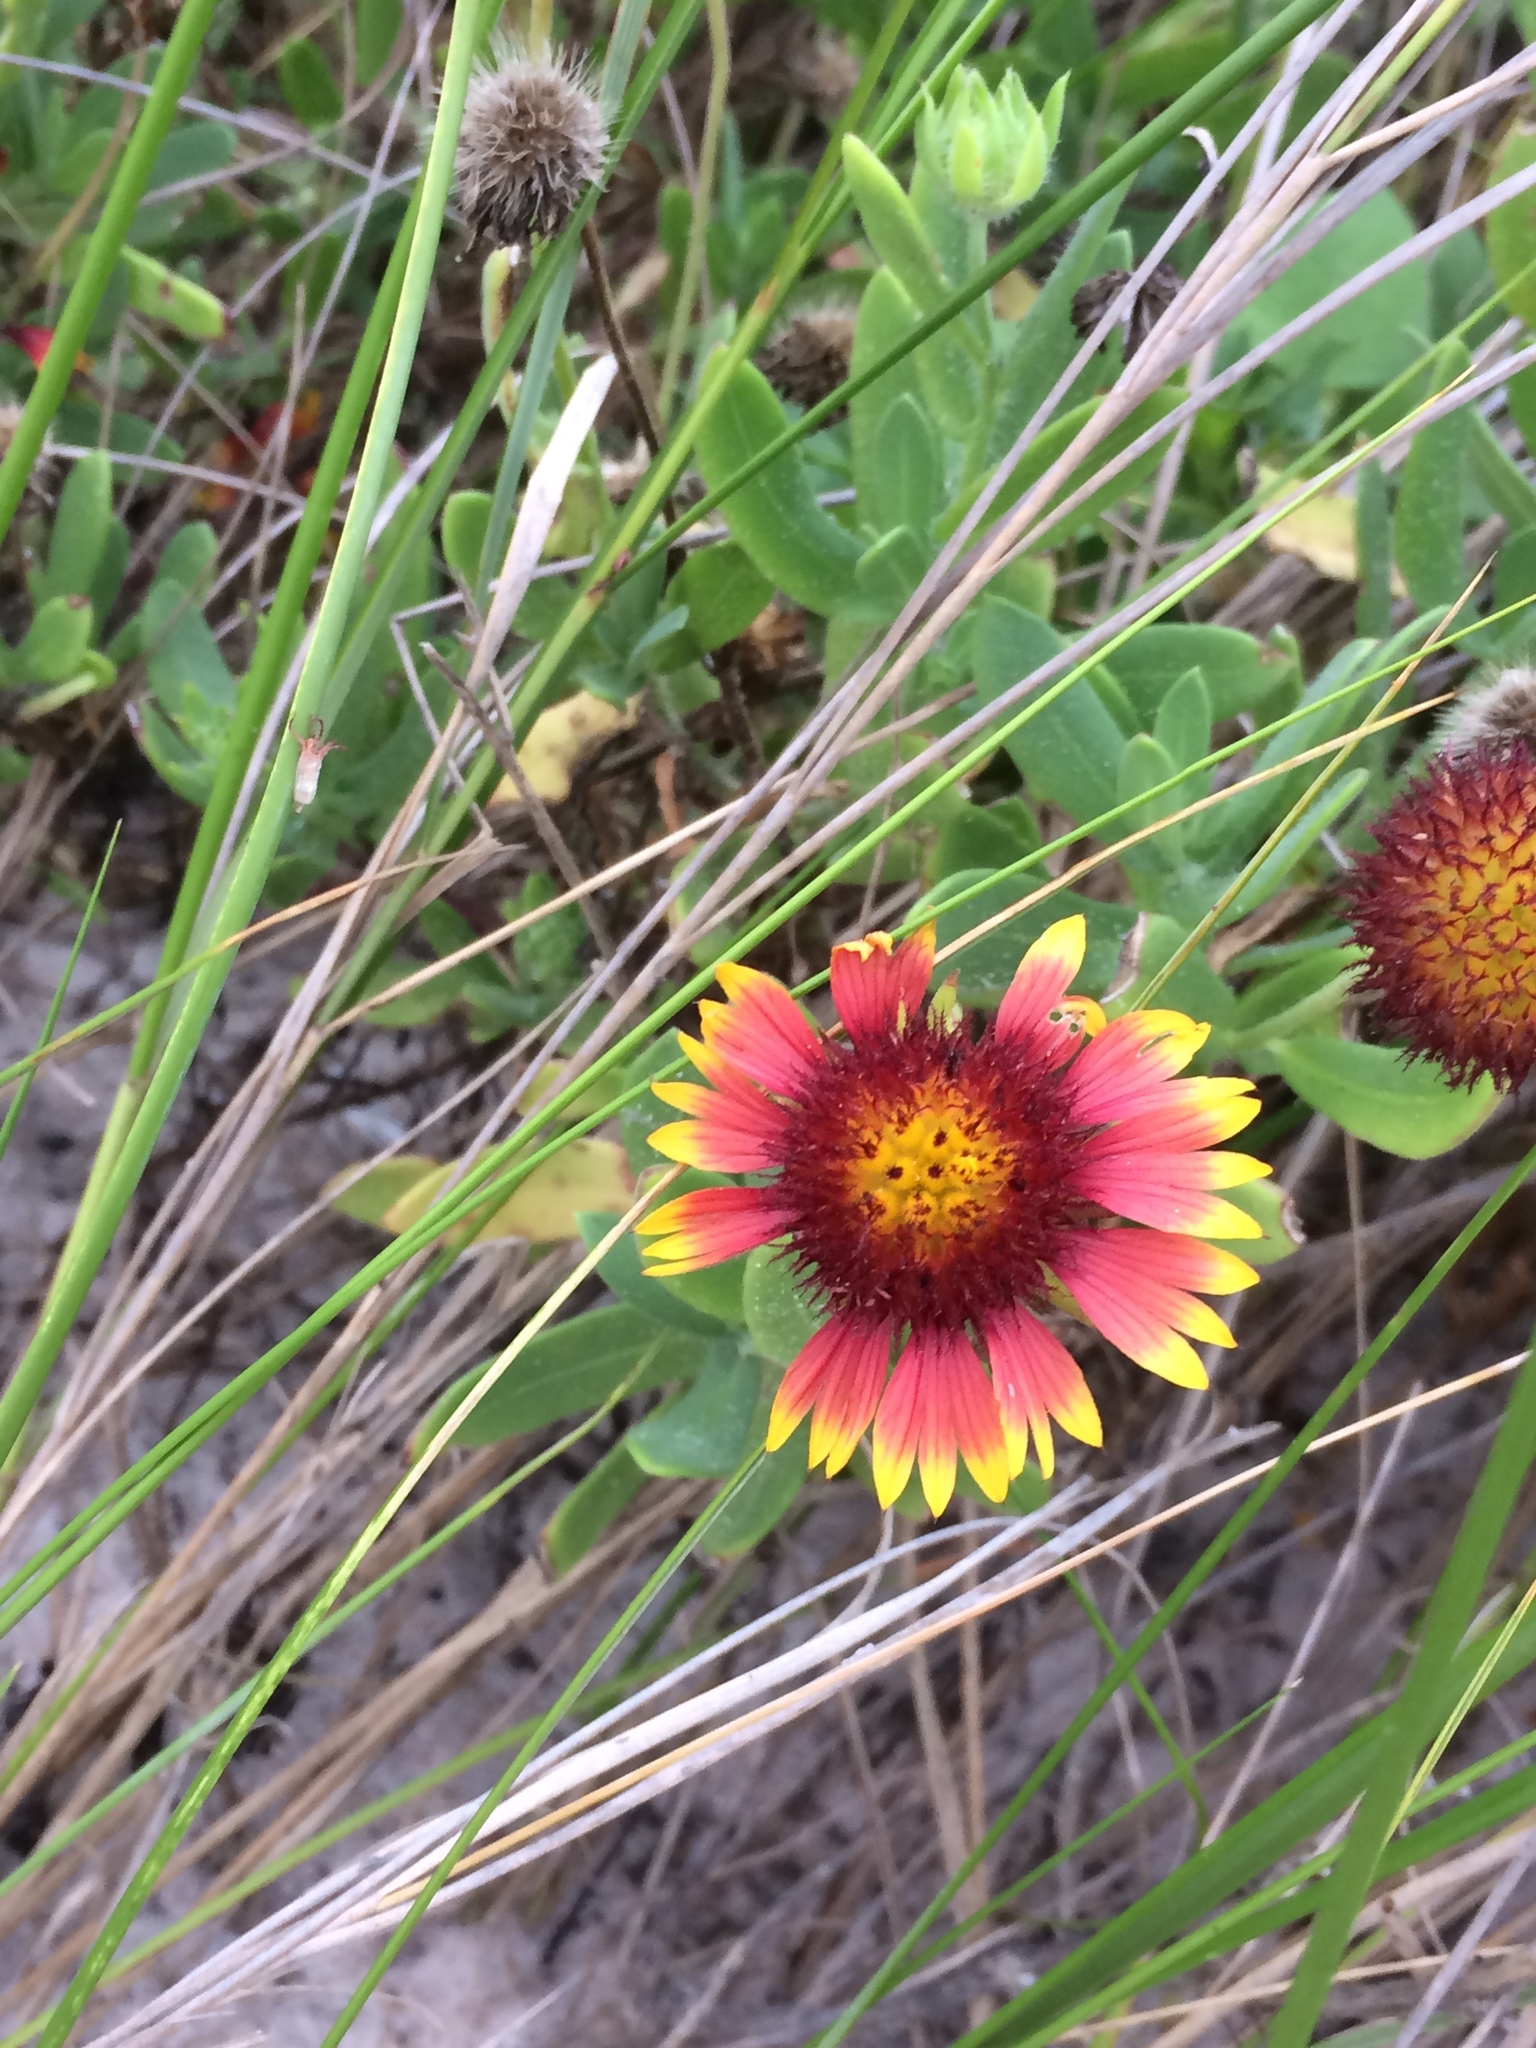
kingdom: Plantae
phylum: Tracheophyta
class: Magnoliopsida
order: Asterales
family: Asteraceae
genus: Gaillardia
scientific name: Gaillardia pulchella
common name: Firewheel
